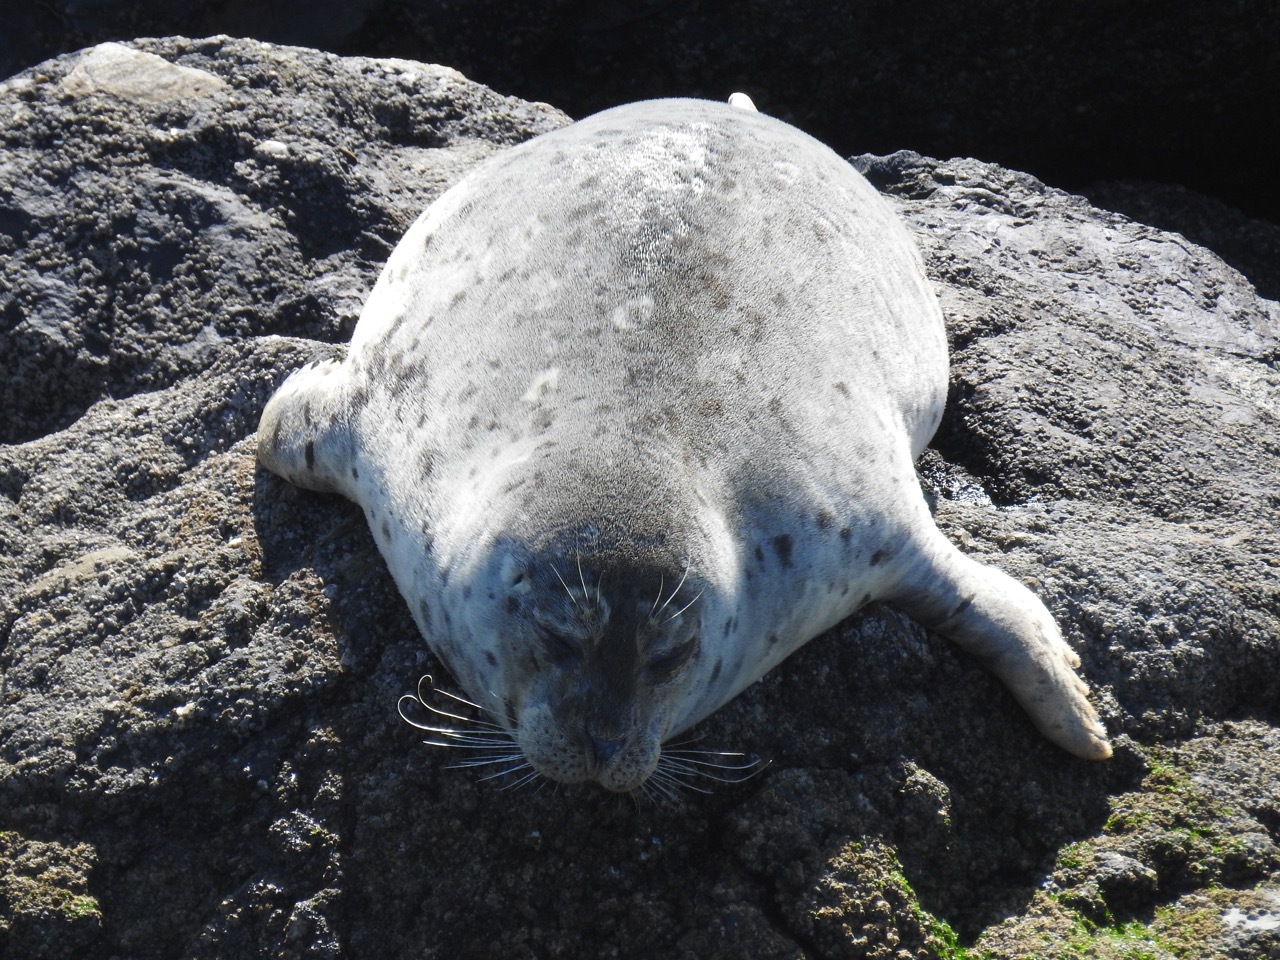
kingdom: Animalia
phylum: Chordata
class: Mammalia
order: Carnivora
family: Phocidae
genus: Phoca
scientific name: Phoca vitulina
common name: Harbor seal
